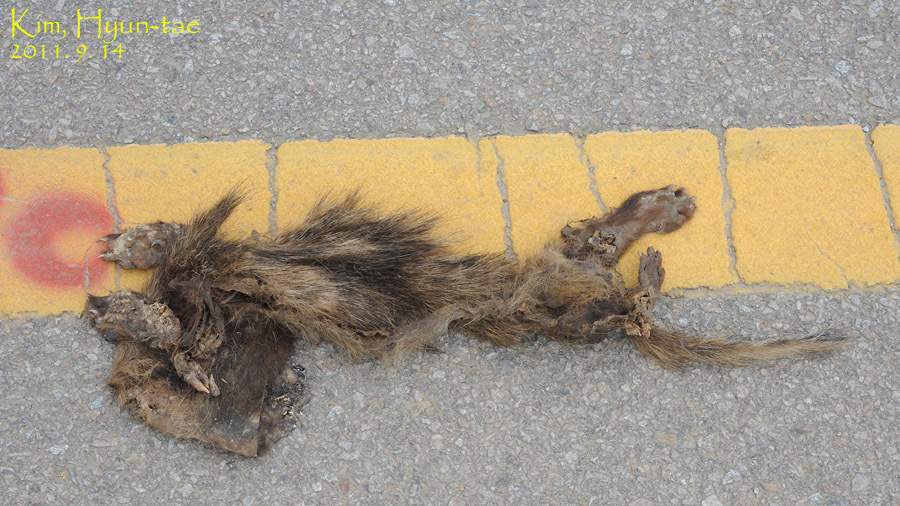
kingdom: Animalia
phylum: Chordata
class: Mammalia
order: Carnivora
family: Canidae
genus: Nyctereutes
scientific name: Nyctereutes procyonoides
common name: Raccoon dog
